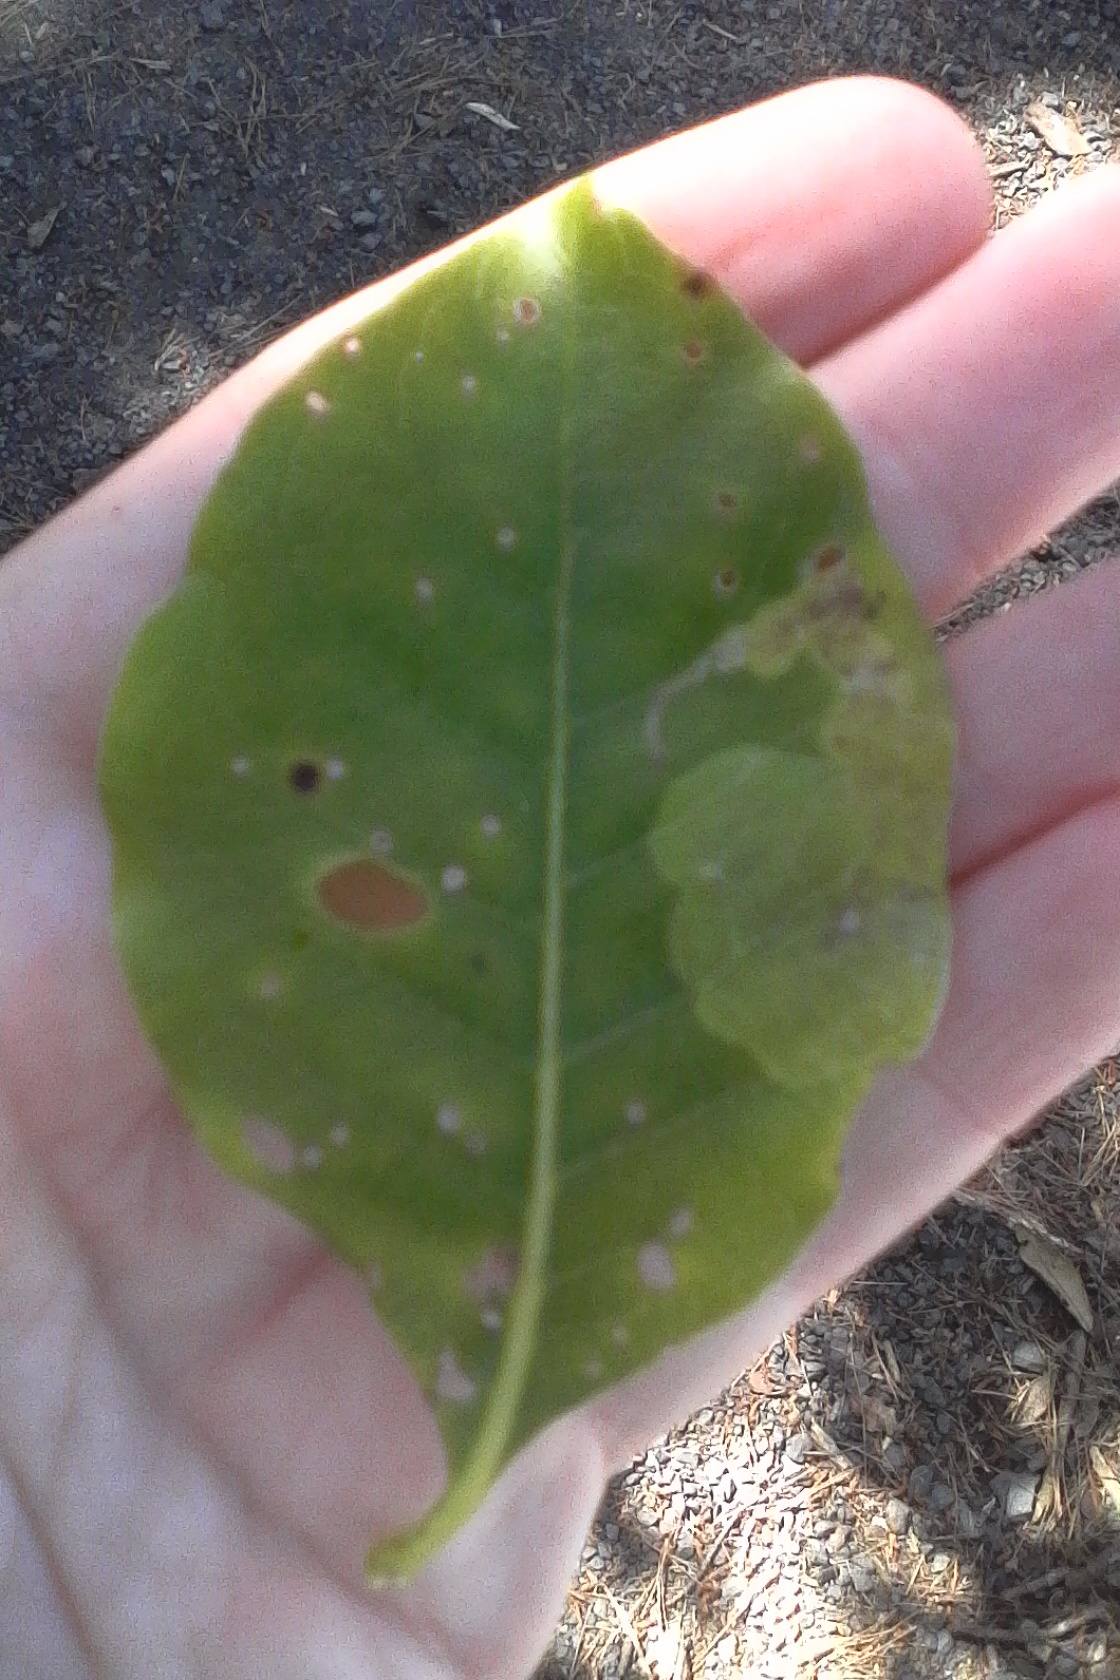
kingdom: Animalia
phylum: Arthropoda
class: Insecta
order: Lepidoptera
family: Gracillariidae
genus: Corythoxestis
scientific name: Corythoxestis zorionella
